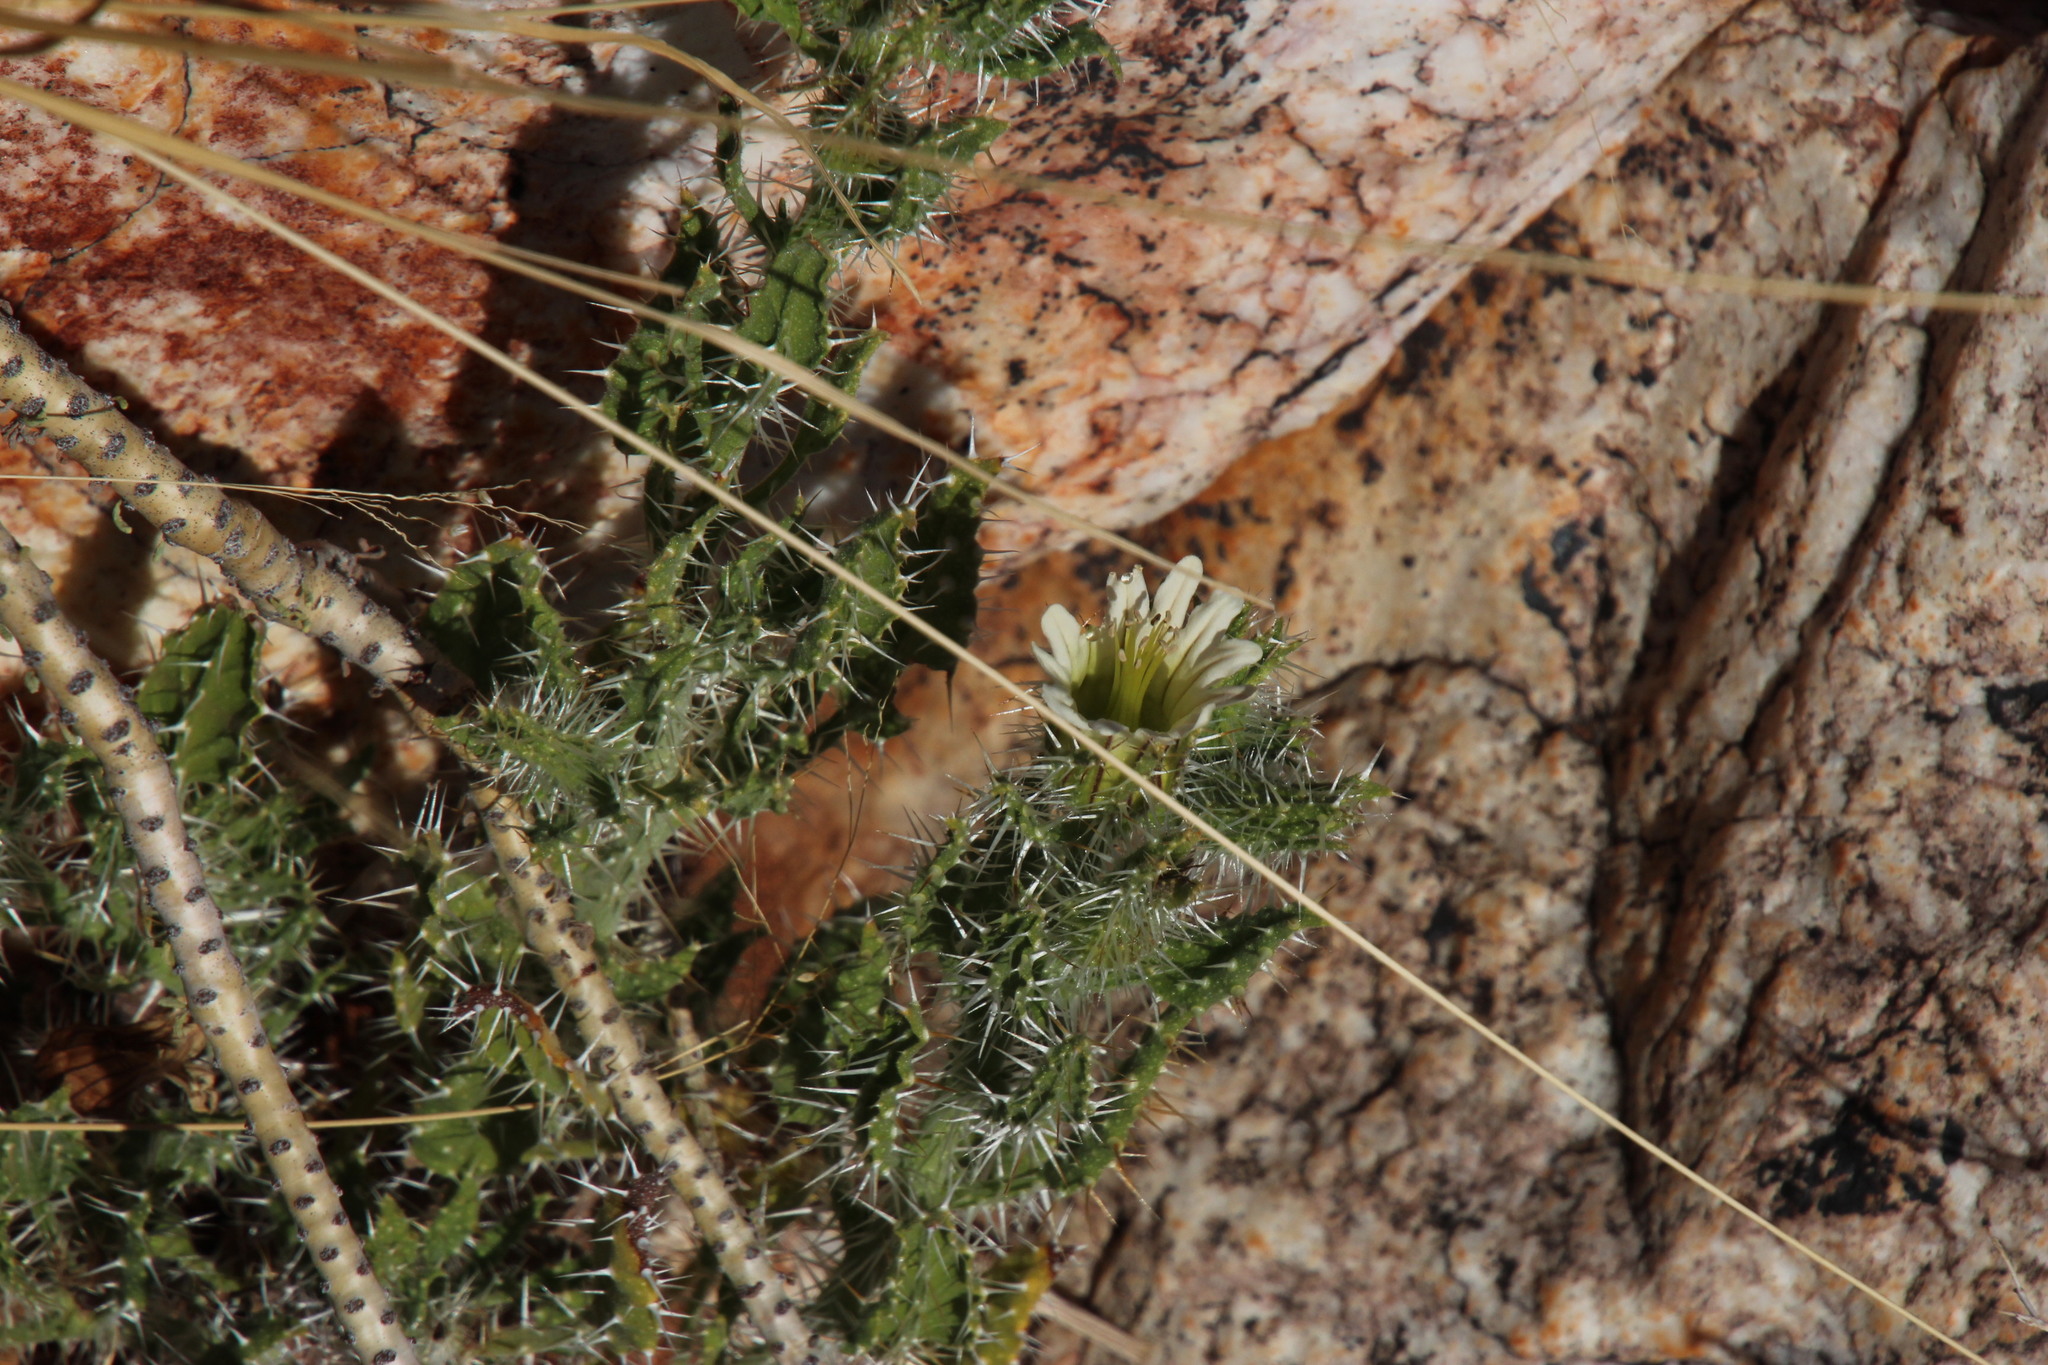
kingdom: Plantae
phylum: Tracheophyta
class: Magnoliopsida
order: Boraginales
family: Boraginaceae
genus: Codon
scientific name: Codon royenii
